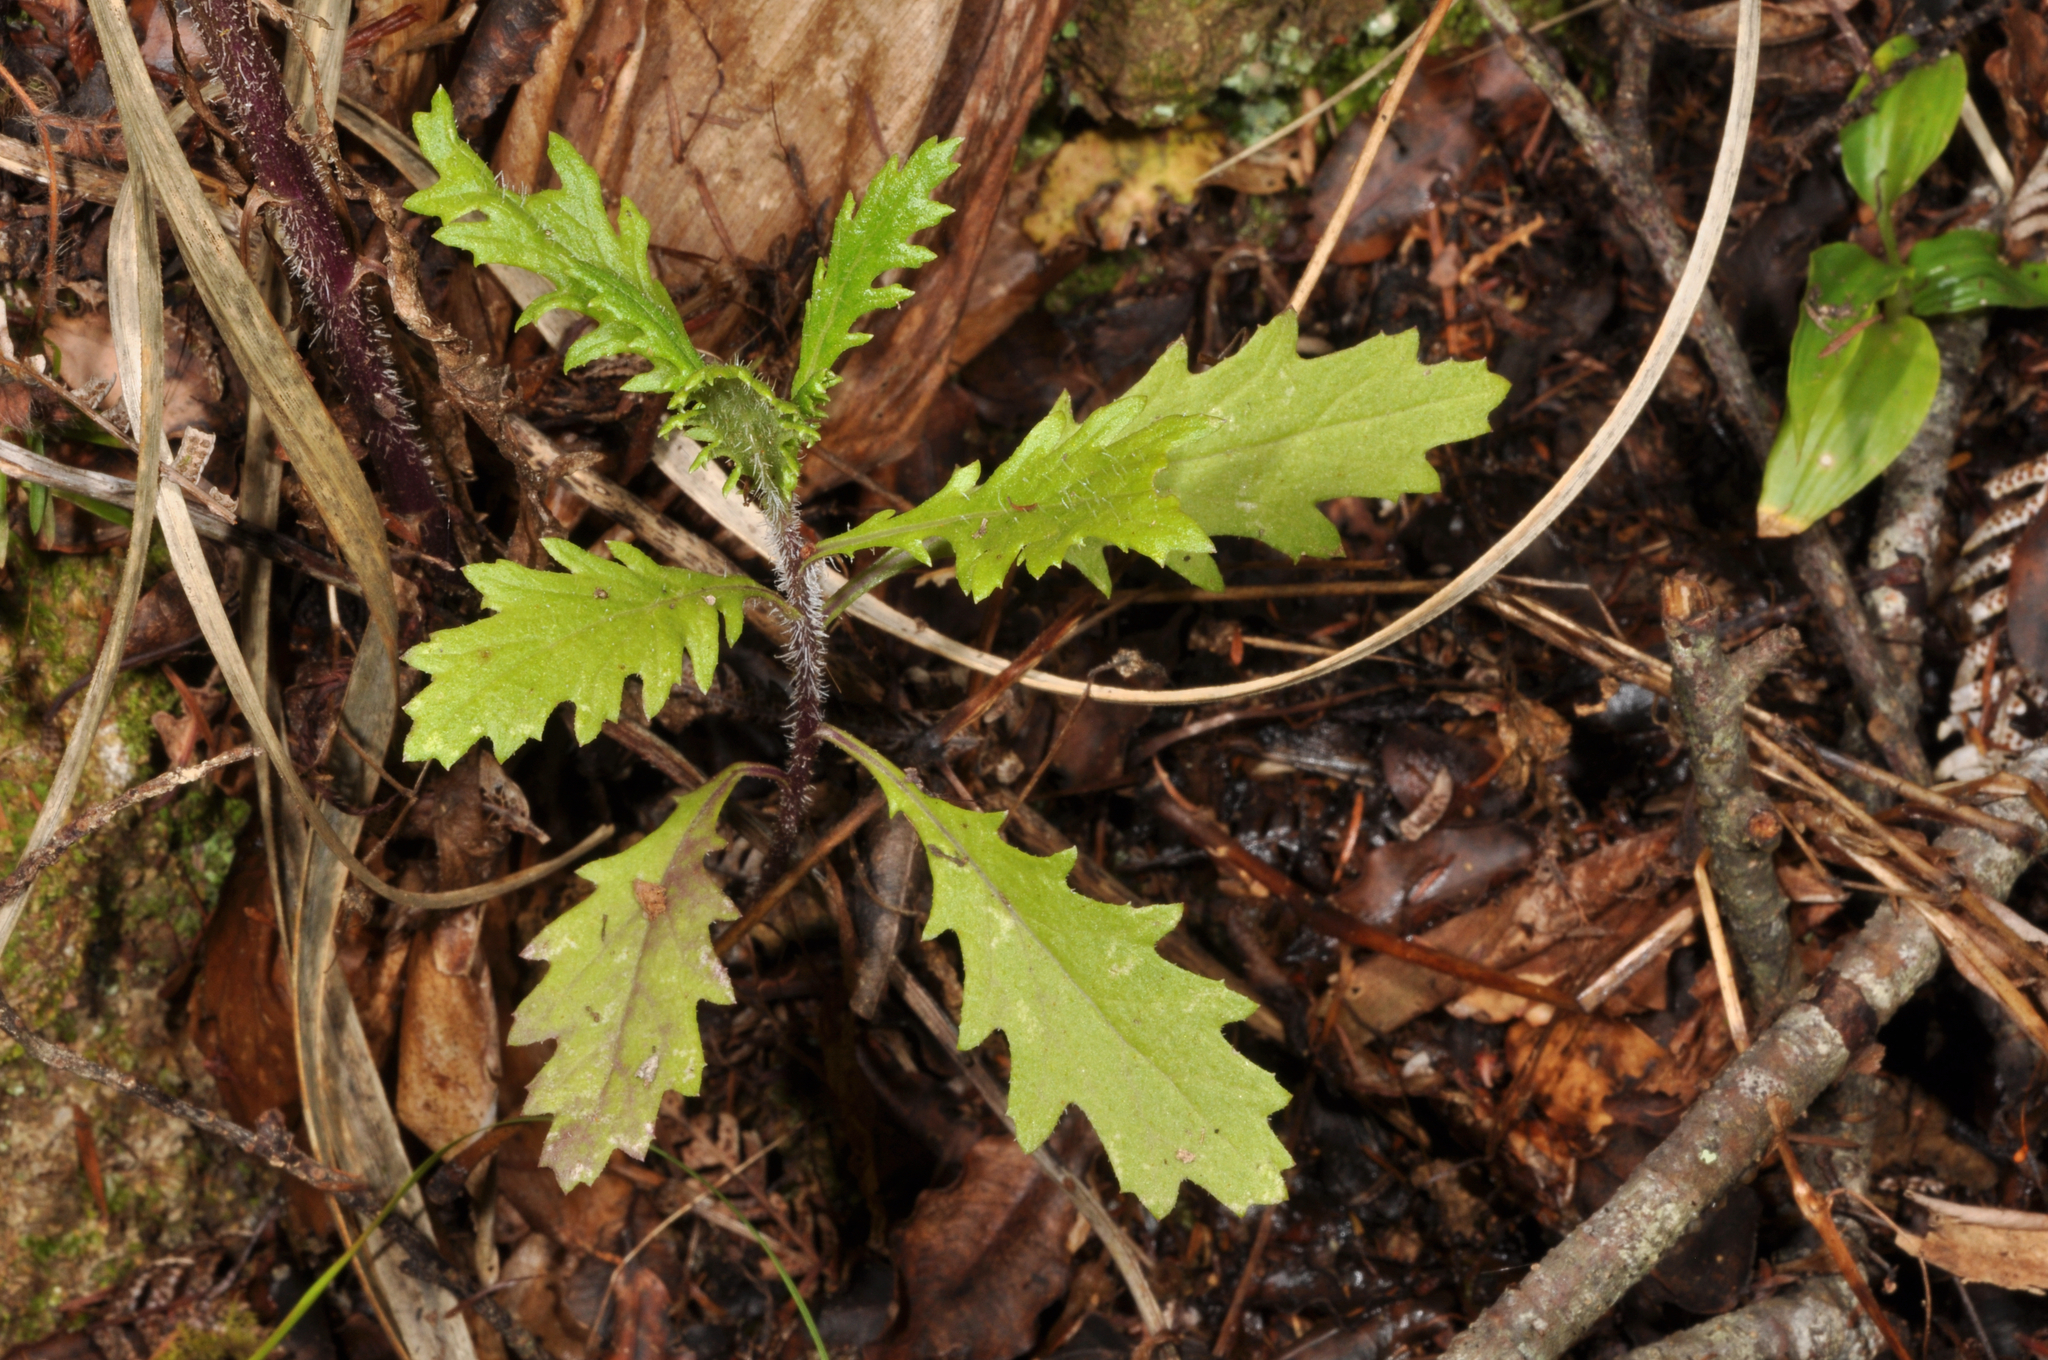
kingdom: Plantae
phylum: Tracheophyta
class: Magnoliopsida
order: Asterales
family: Asteraceae
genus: Senecio
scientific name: Senecio esleri
